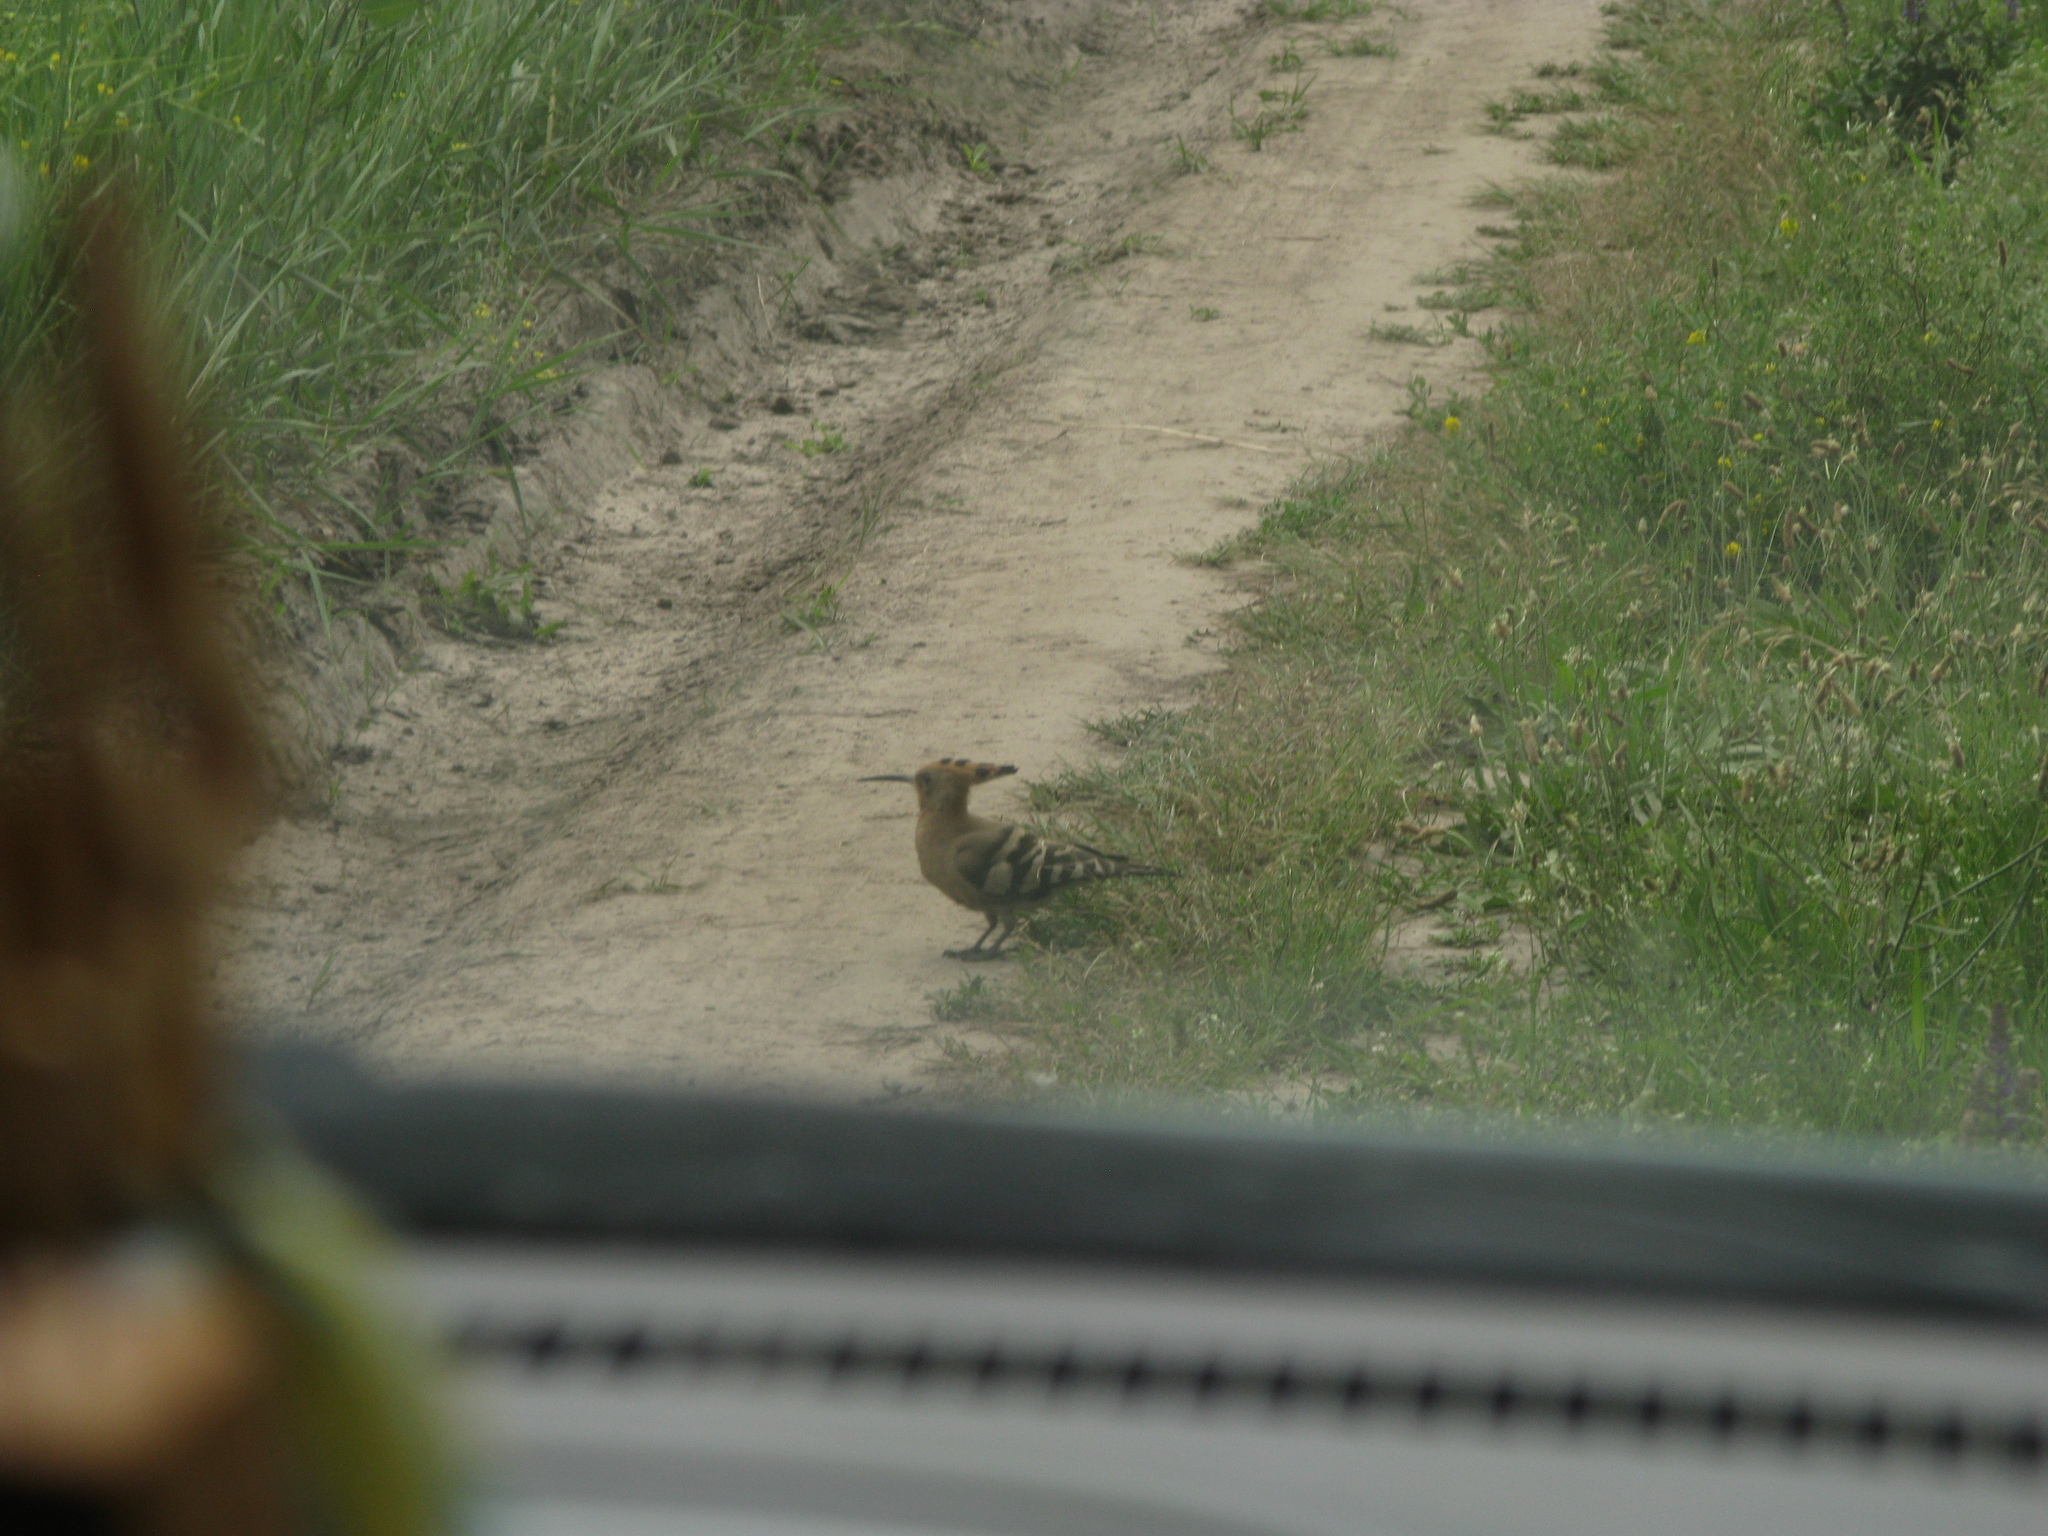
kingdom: Animalia
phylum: Chordata
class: Aves
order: Bucerotiformes
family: Upupidae
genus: Upupa
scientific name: Upupa epops
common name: Eurasian hoopoe
